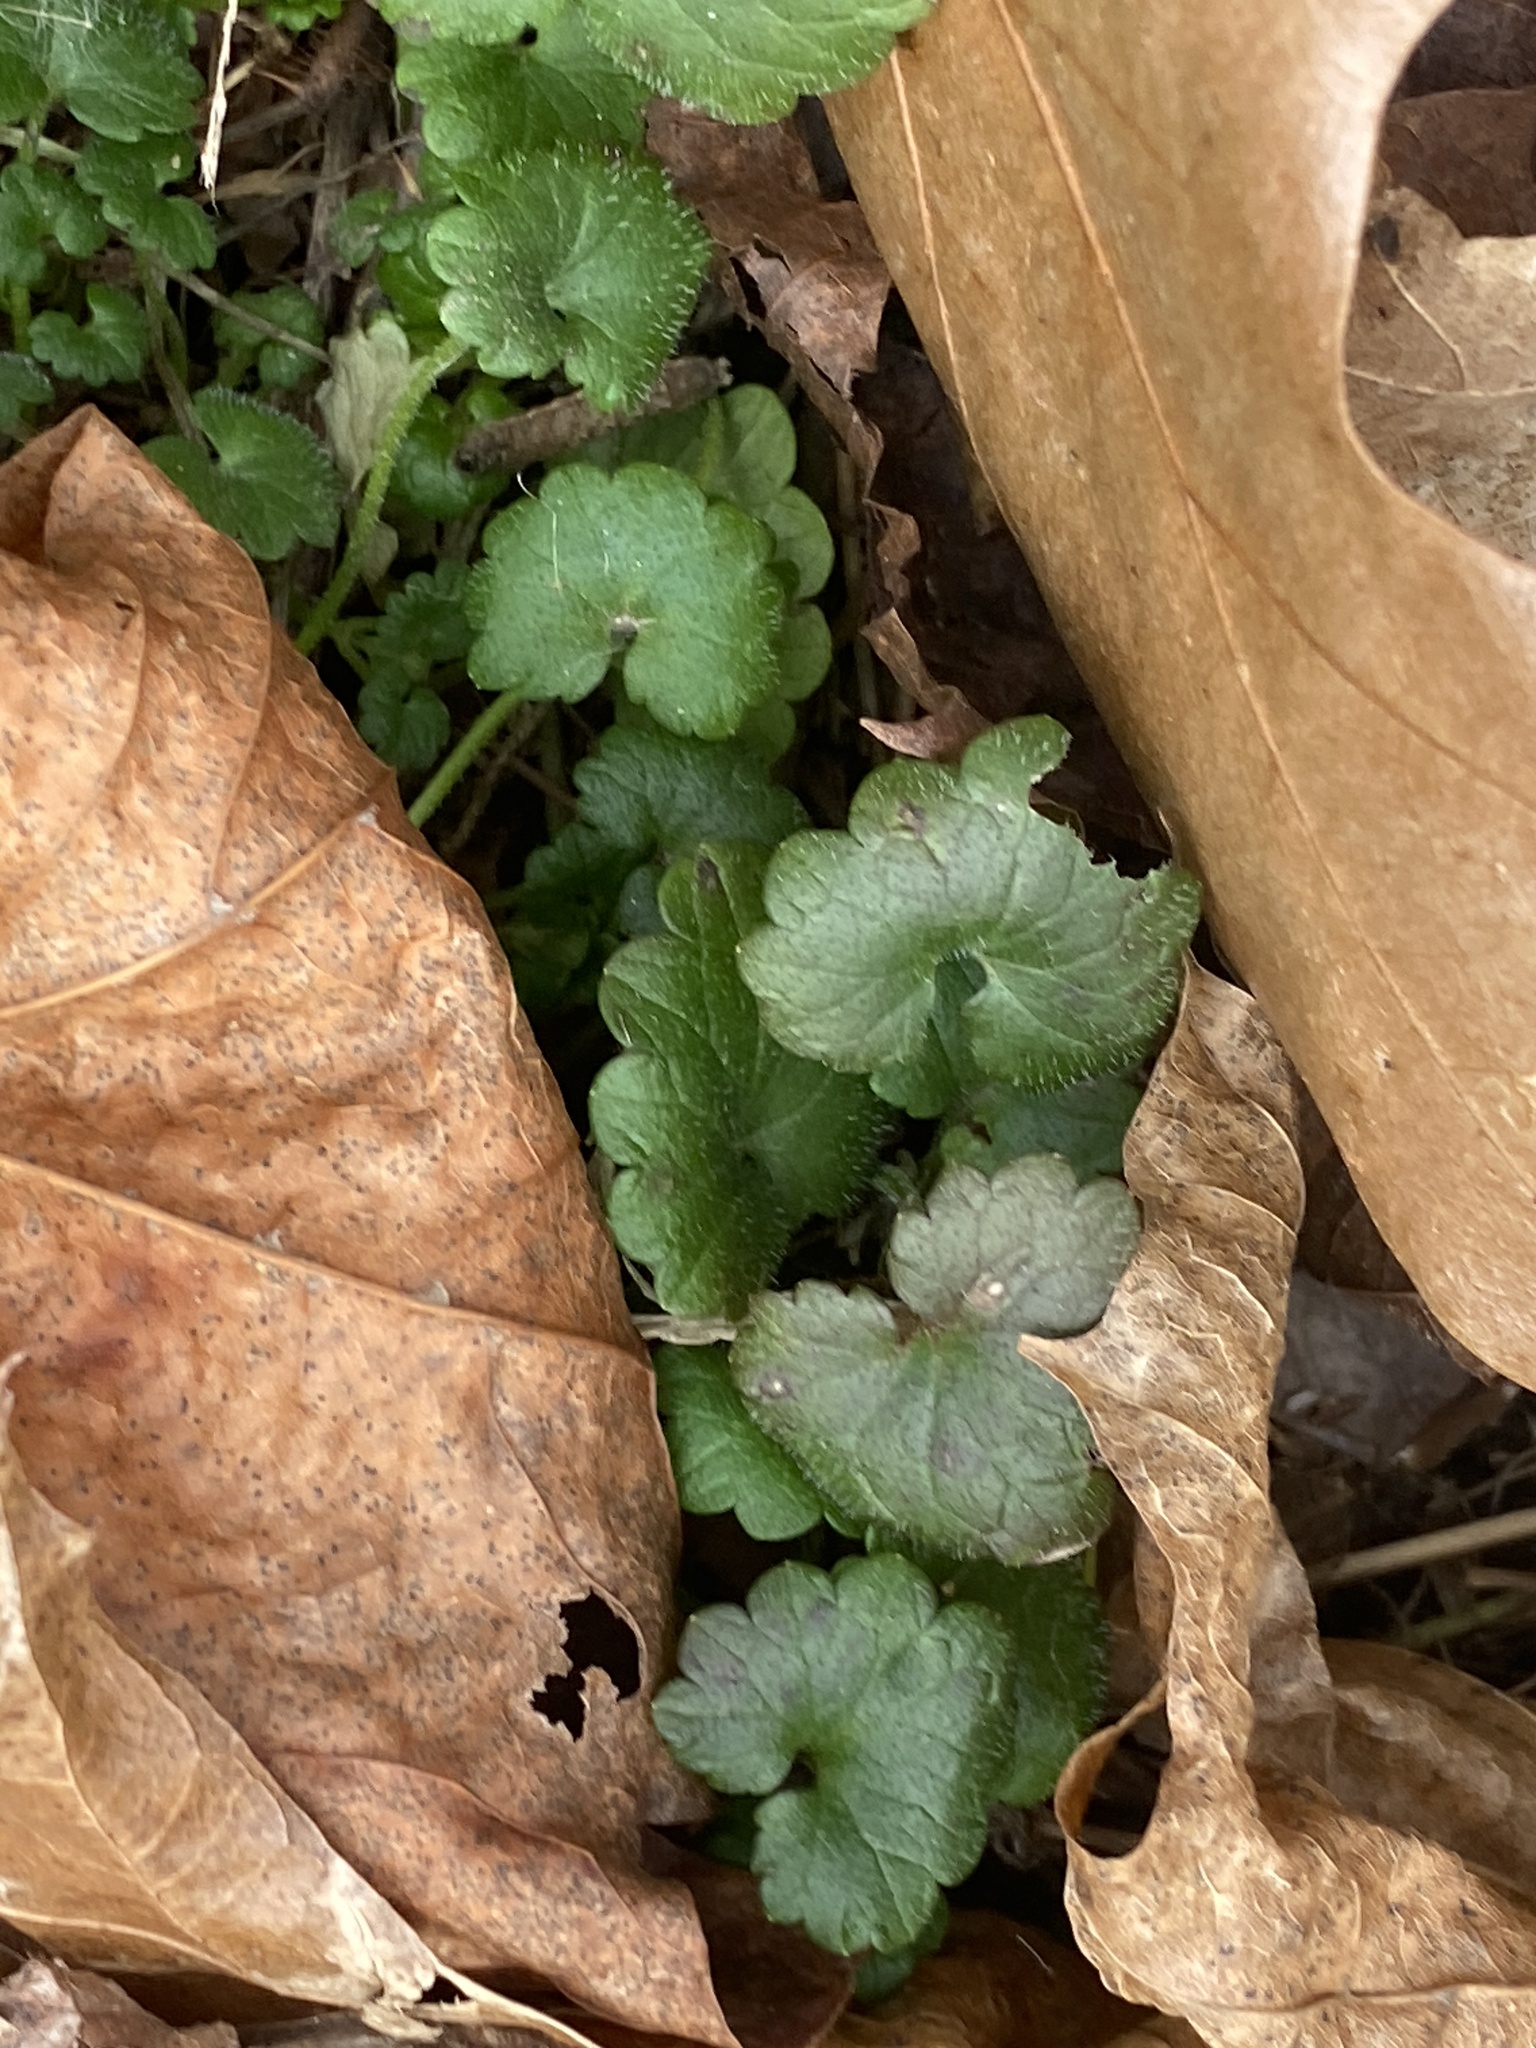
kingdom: Plantae
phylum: Tracheophyta
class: Magnoliopsida
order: Lamiales
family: Lamiaceae
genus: Glechoma
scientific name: Glechoma hederacea
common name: Ground ivy
